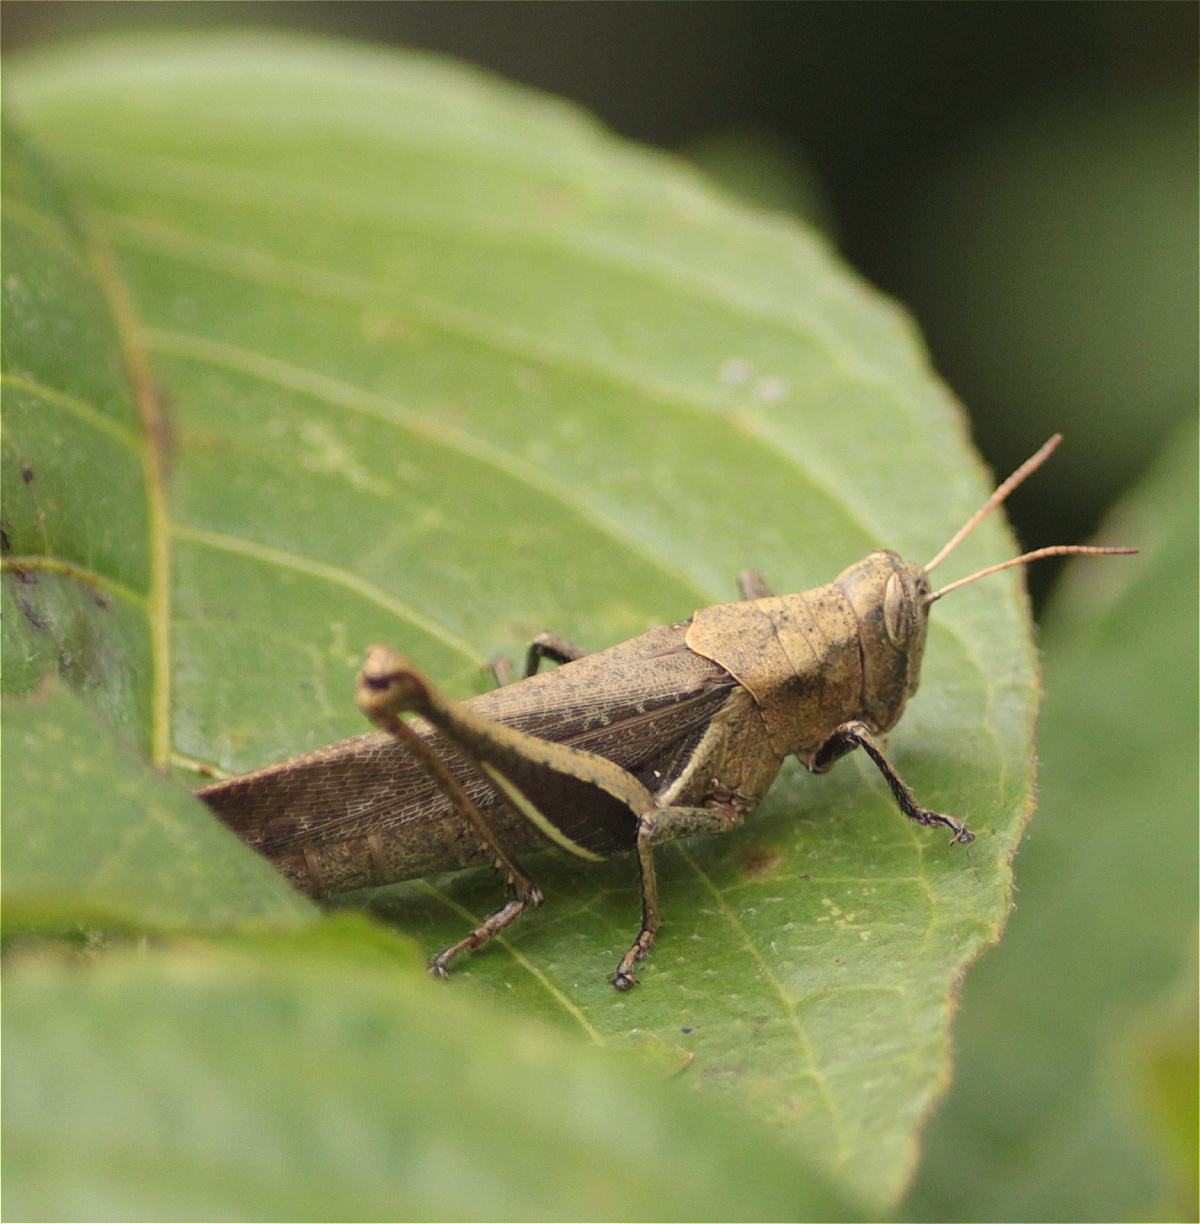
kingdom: Animalia
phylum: Arthropoda
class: Insecta
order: Orthoptera
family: Acrididae
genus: Abracris
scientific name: Abracris flavolineata
